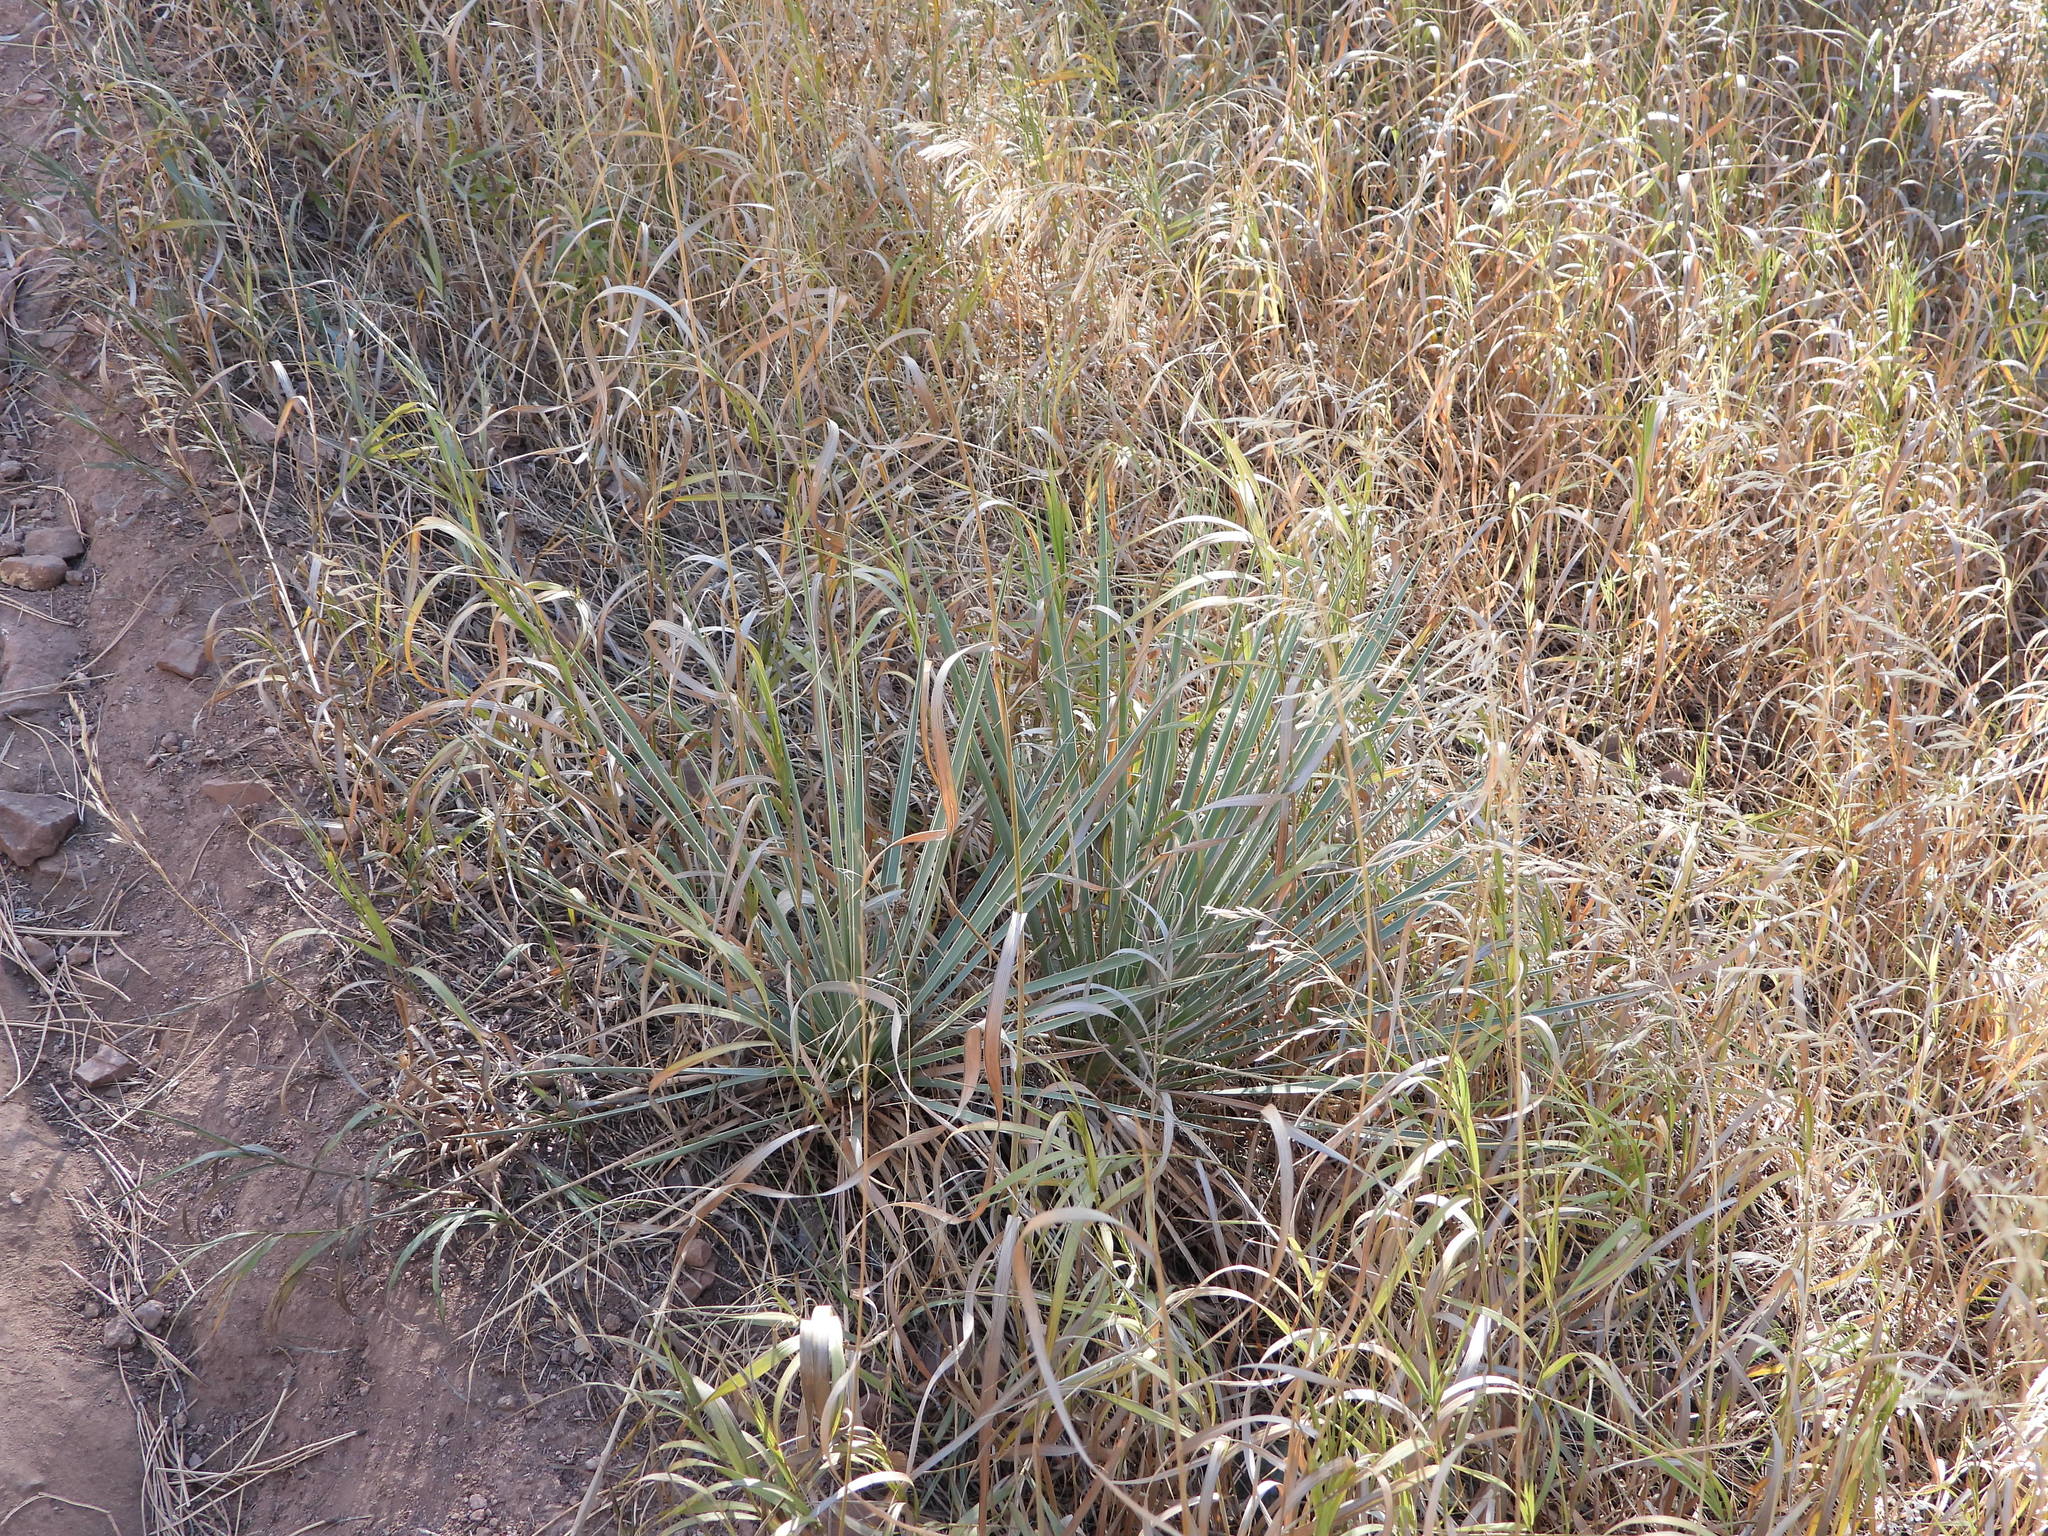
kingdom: Plantae
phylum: Tracheophyta
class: Liliopsida
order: Asparagales
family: Asparagaceae
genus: Yucca
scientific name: Yucca glauca
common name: Great plains yucca
